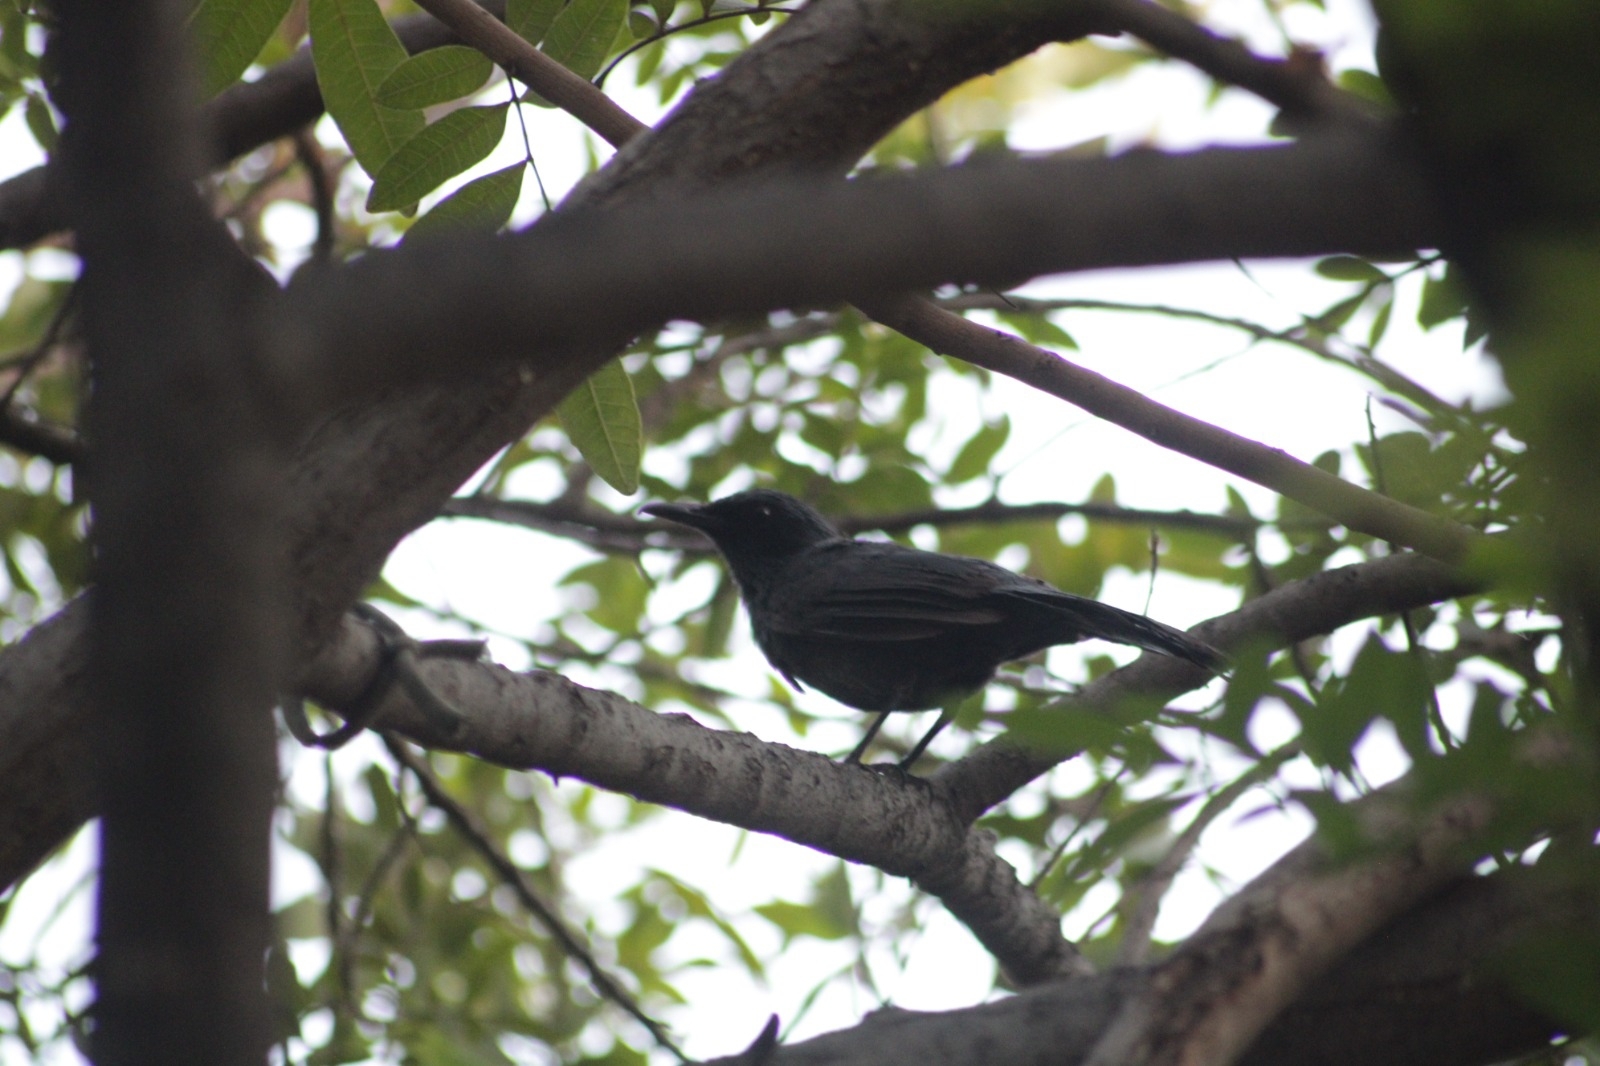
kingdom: Animalia
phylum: Chordata
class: Aves
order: Passeriformes
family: Mimidae
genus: Melanotis
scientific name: Melanotis caerulescens
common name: Blue mockingbird
